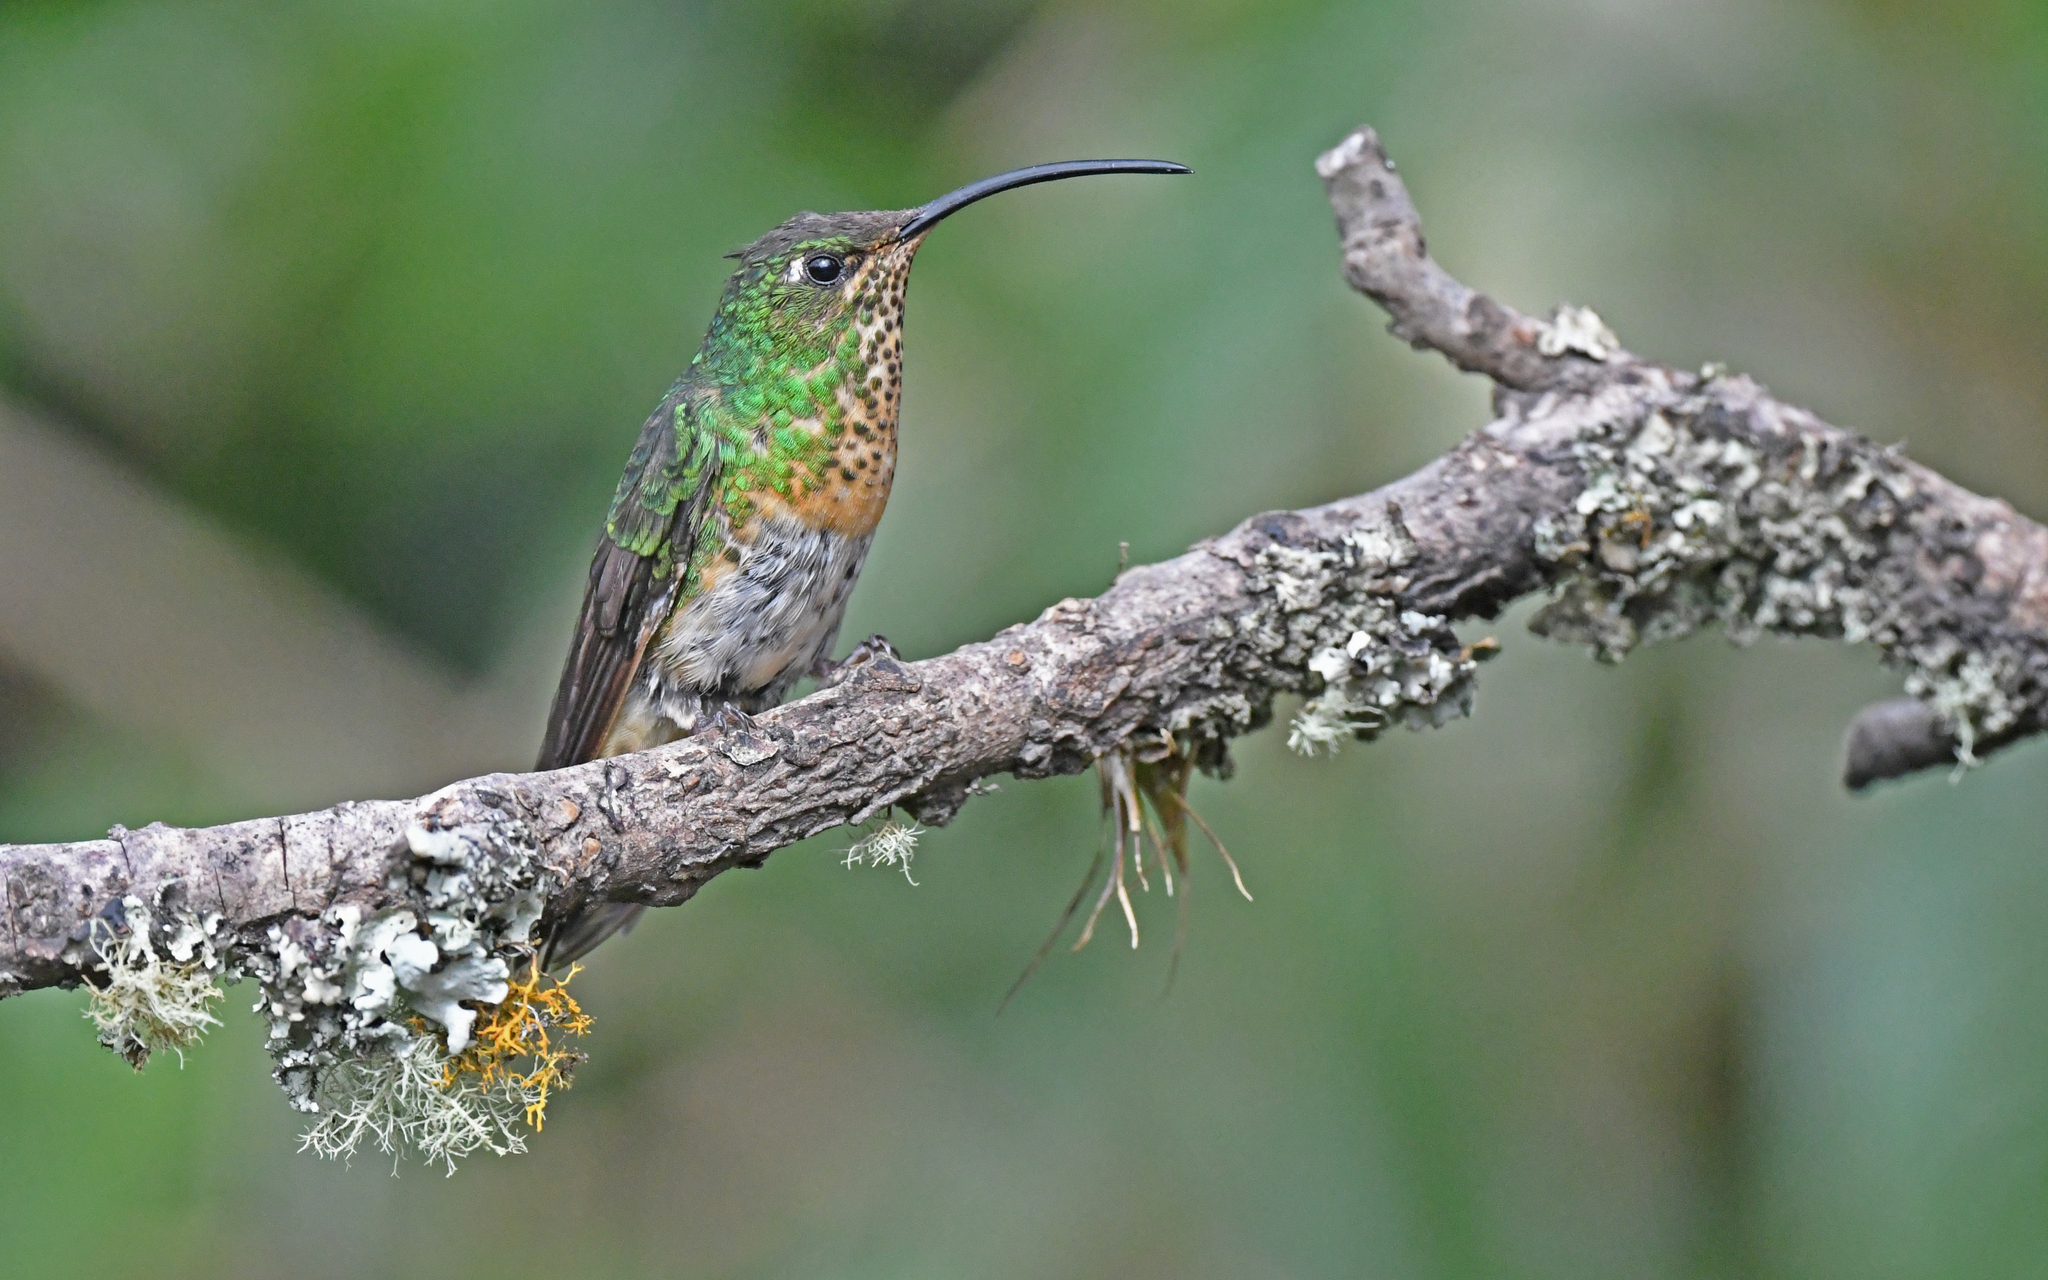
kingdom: Animalia
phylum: Chordata
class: Aves
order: Apodiformes
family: Trochilidae
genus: Lafresnaya
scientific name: Lafresnaya lafresnayi
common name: Mountain velvetbreast
